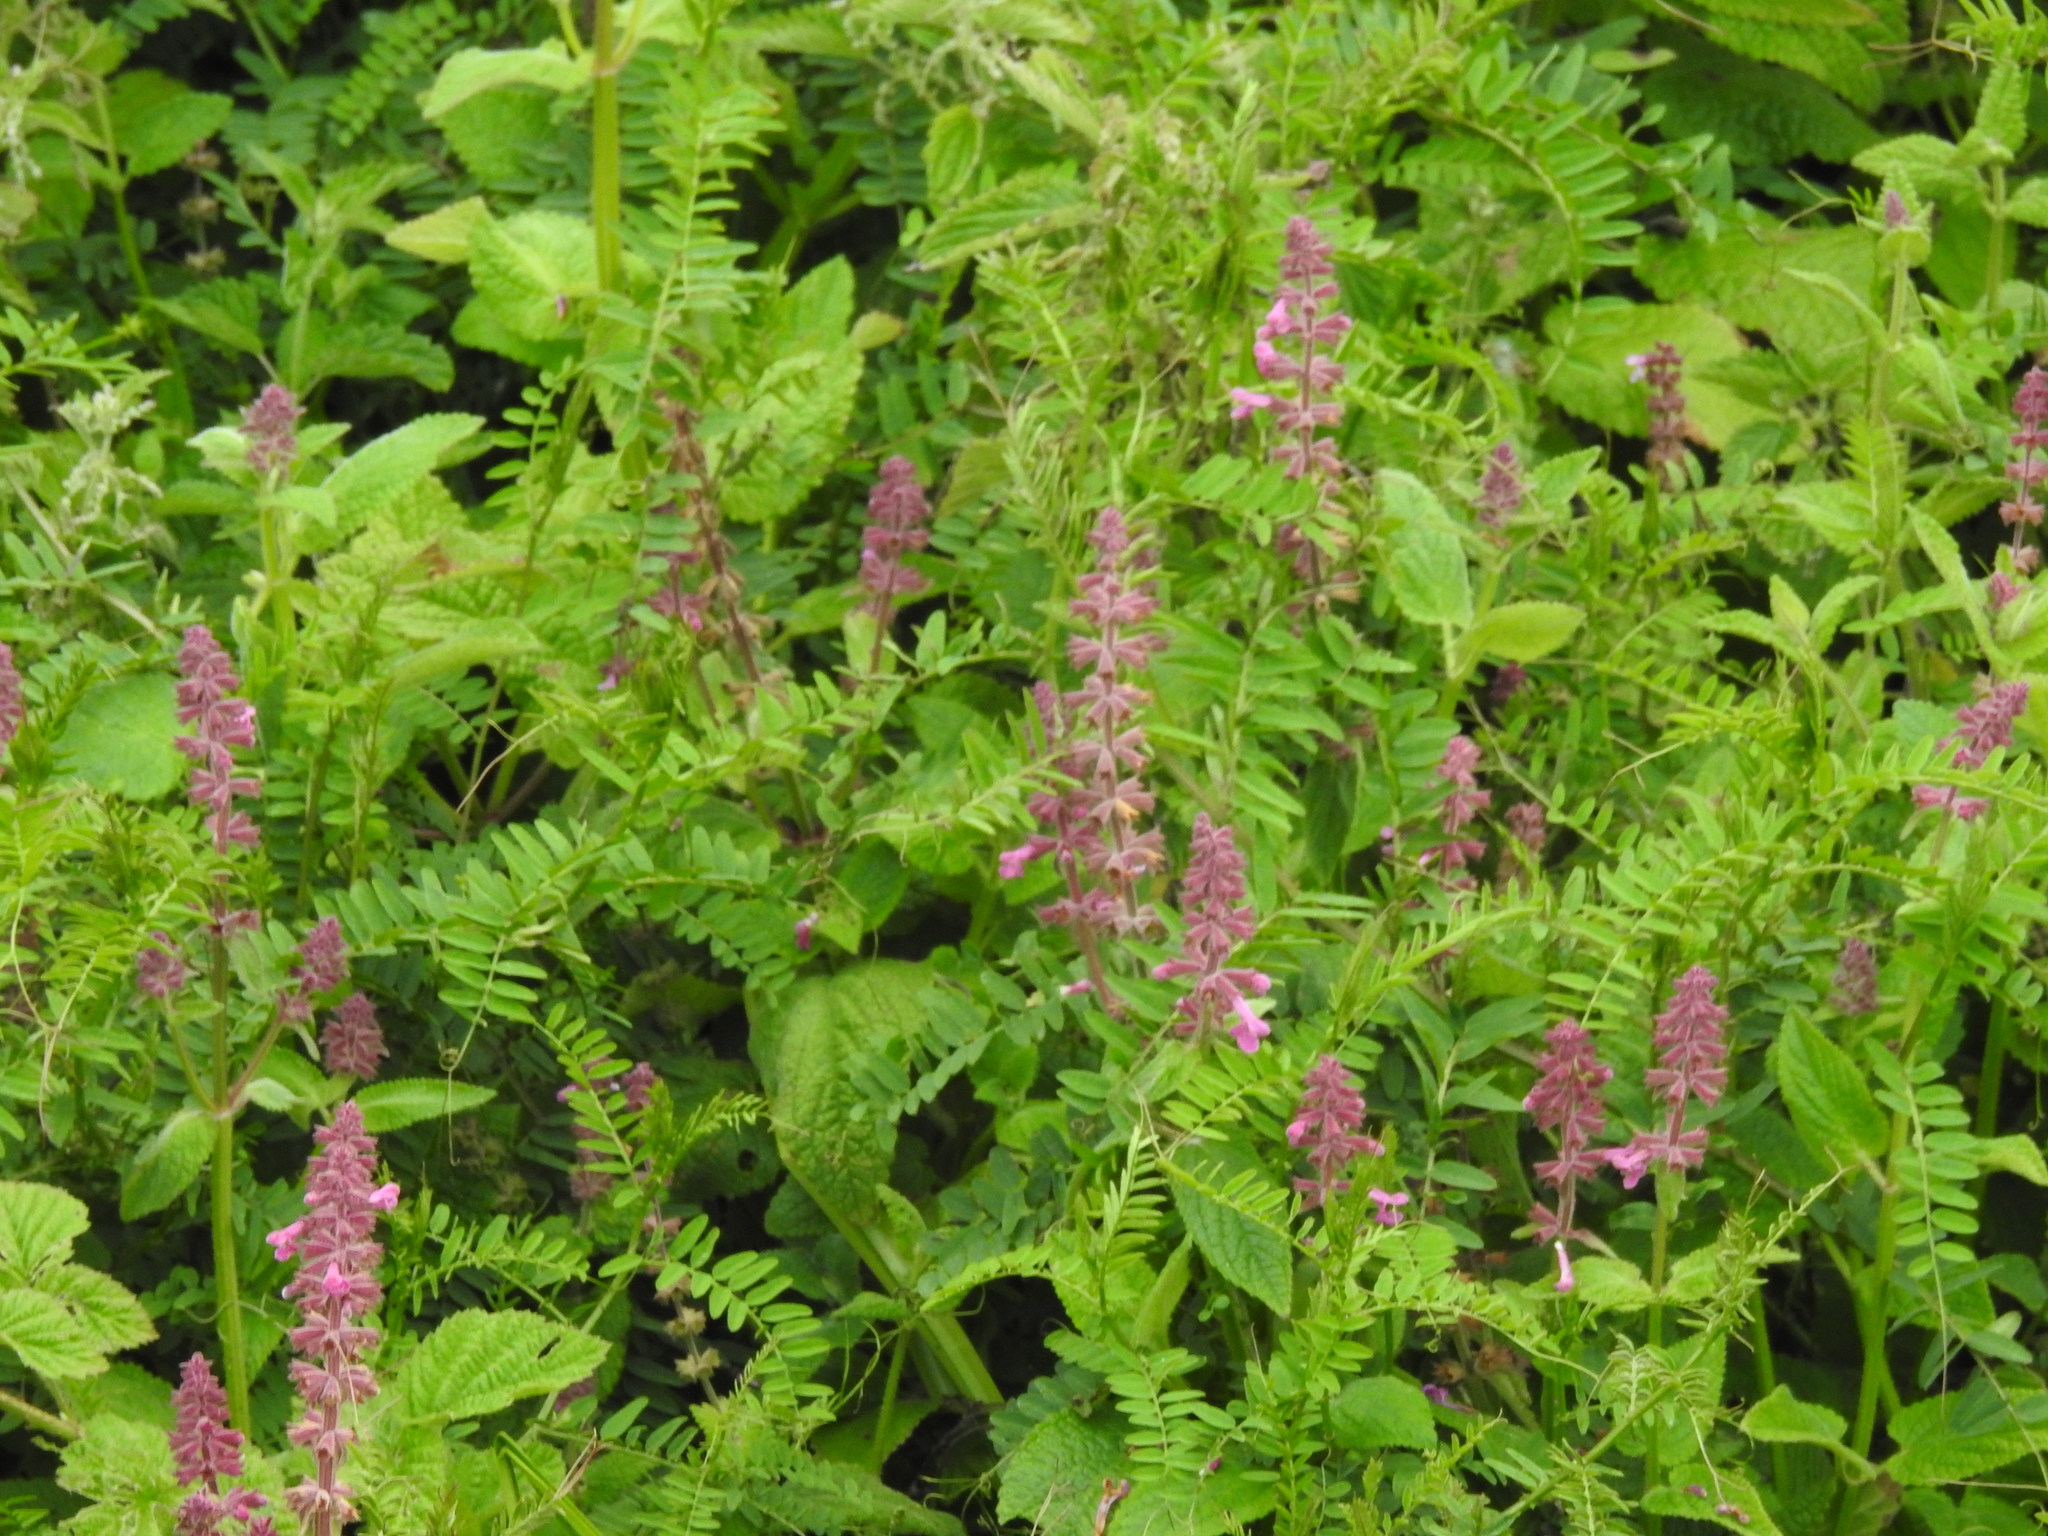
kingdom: Plantae
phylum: Tracheophyta
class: Magnoliopsida
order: Lamiales
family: Lamiaceae
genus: Stachys
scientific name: Stachys chamissonis
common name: Coastal hedge-nettle
